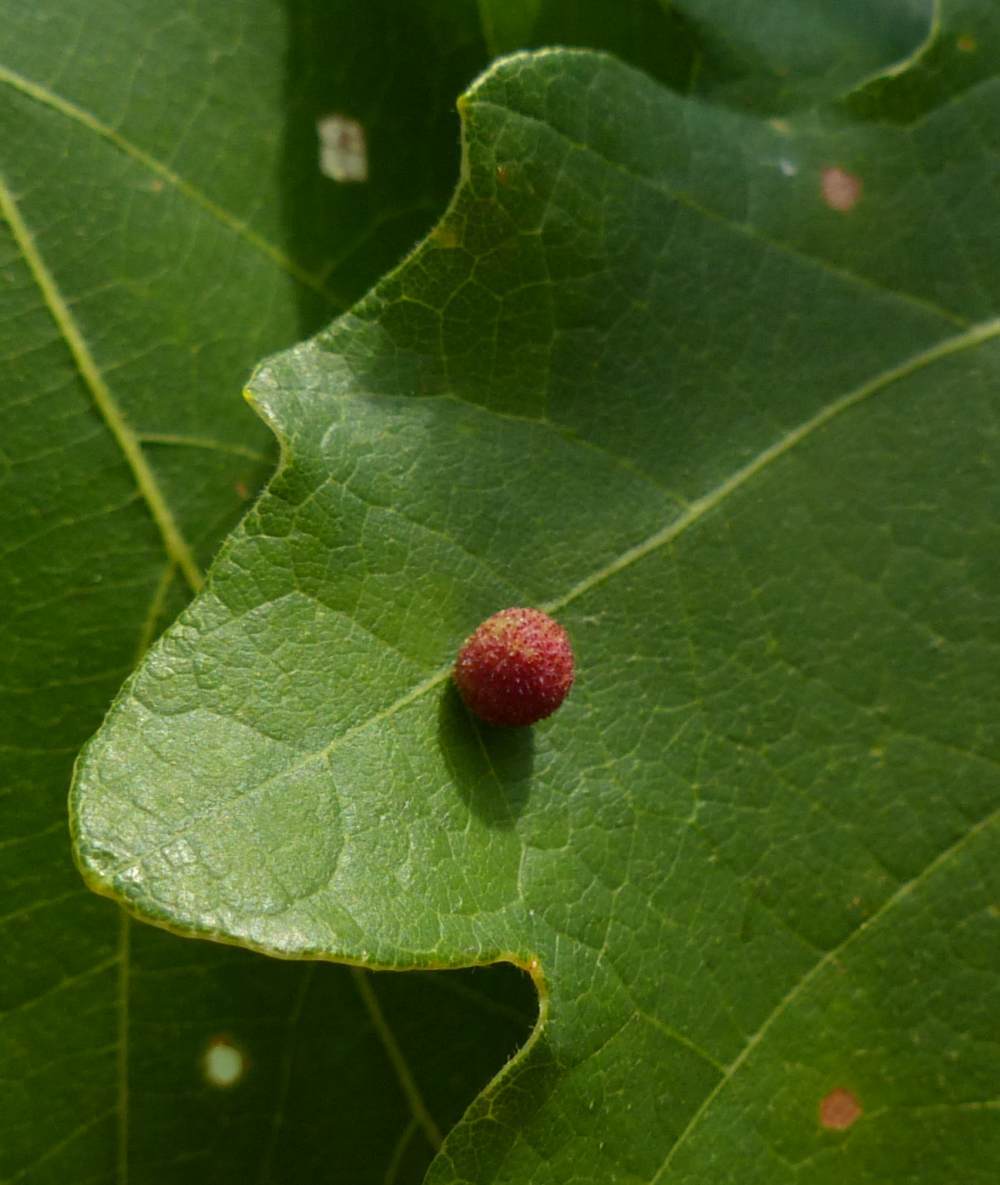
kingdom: Animalia
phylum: Arthropoda
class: Insecta
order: Hymenoptera
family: Cynipidae
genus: Acraspis
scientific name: Acraspis quercushirta
